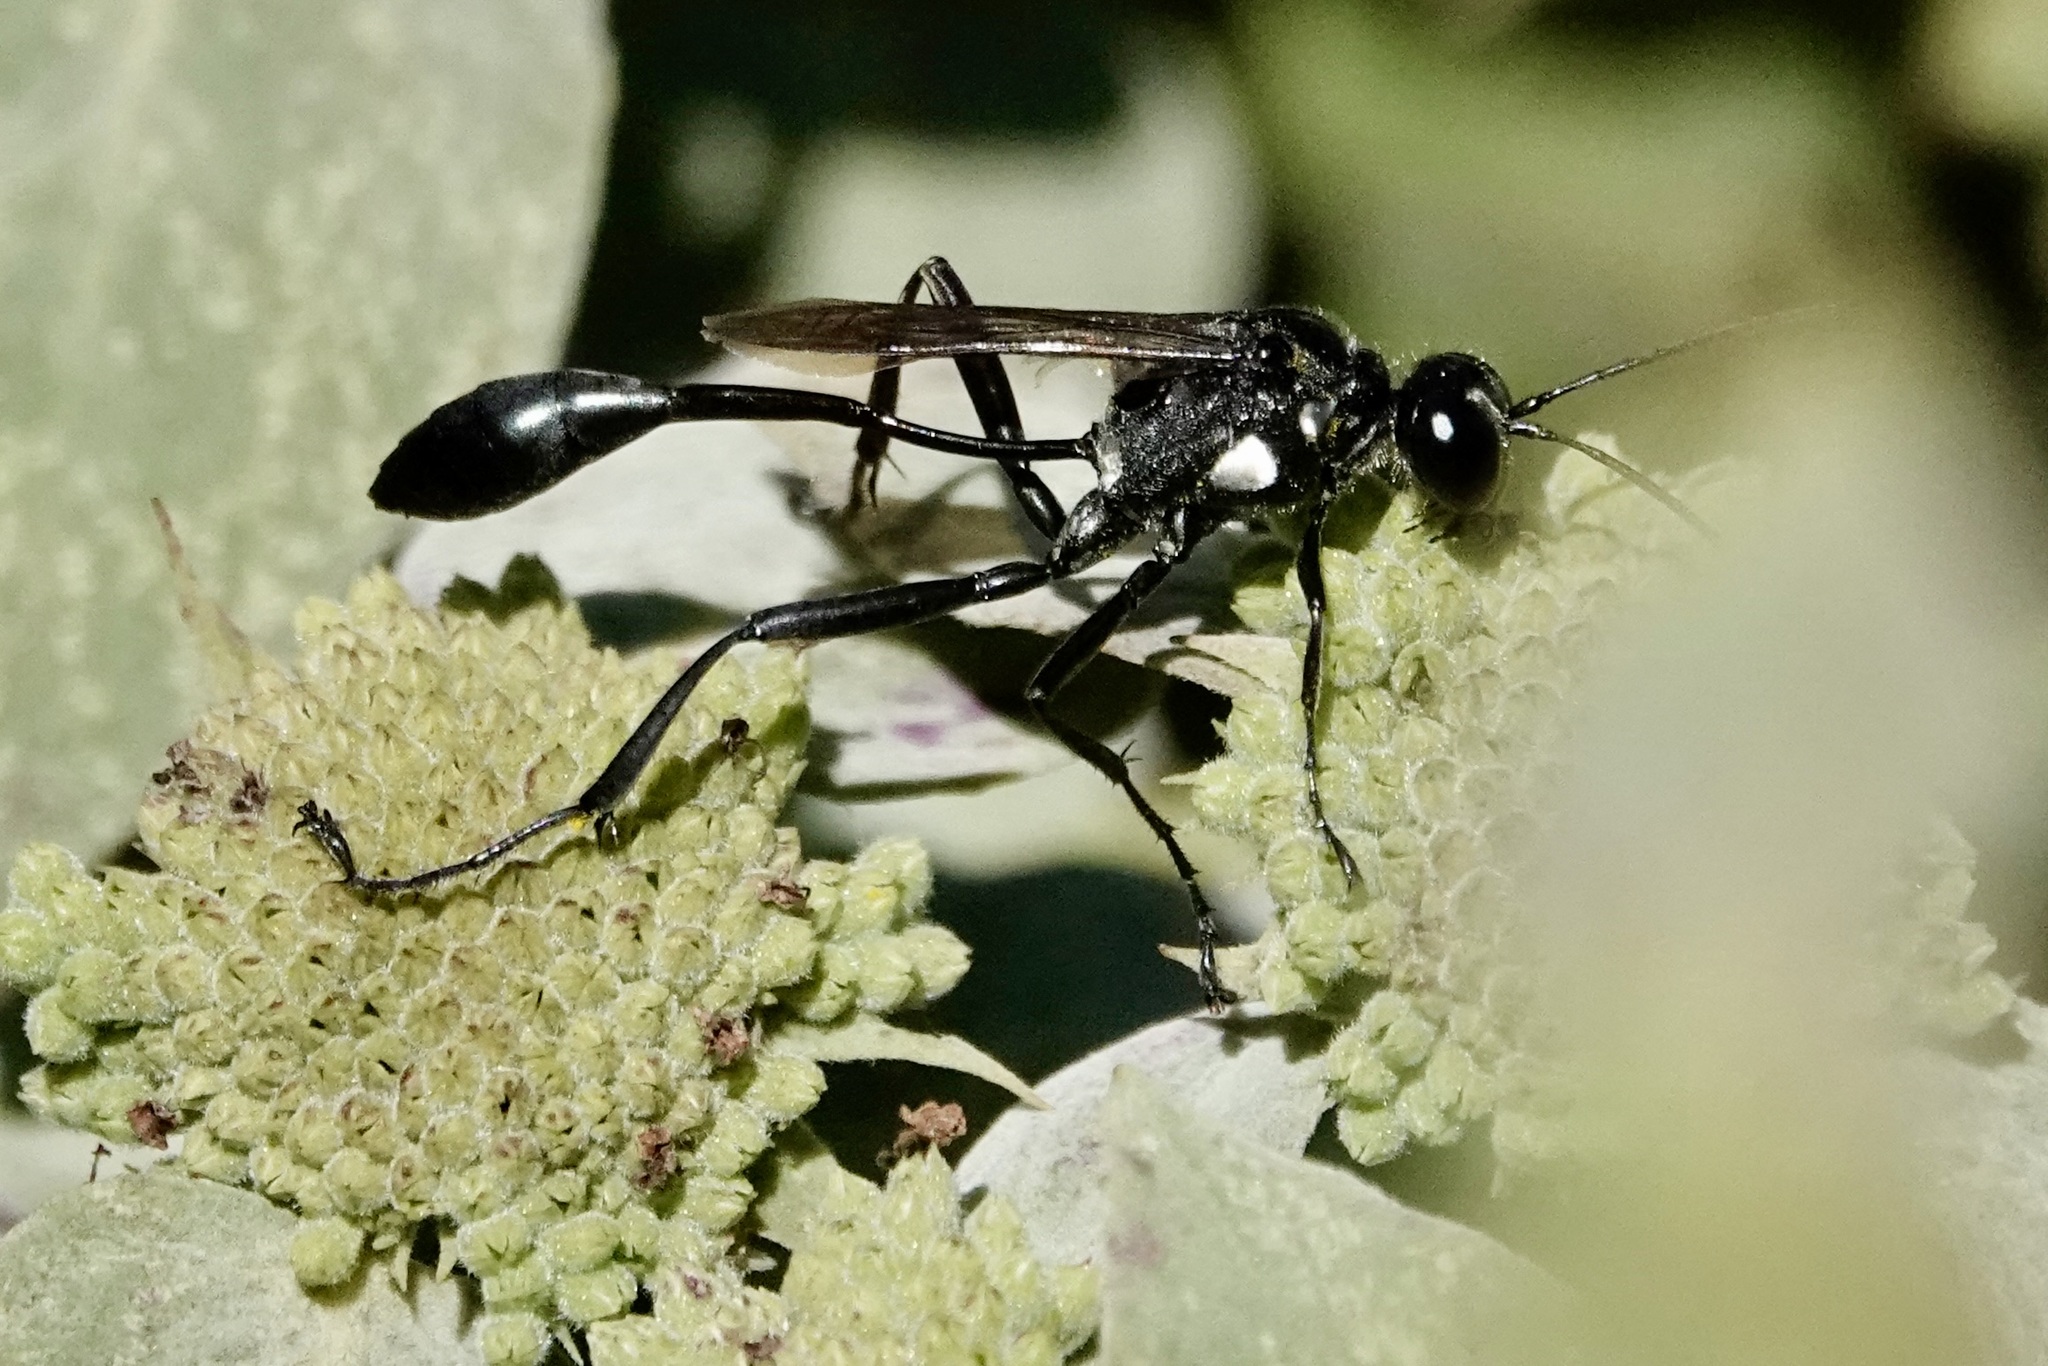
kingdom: Animalia
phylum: Arthropoda
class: Insecta
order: Hymenoptera
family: Sphecidae
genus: Eremnophila
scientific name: Eremnophila aureonotata
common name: Gold-marked thread-waisted wasp
